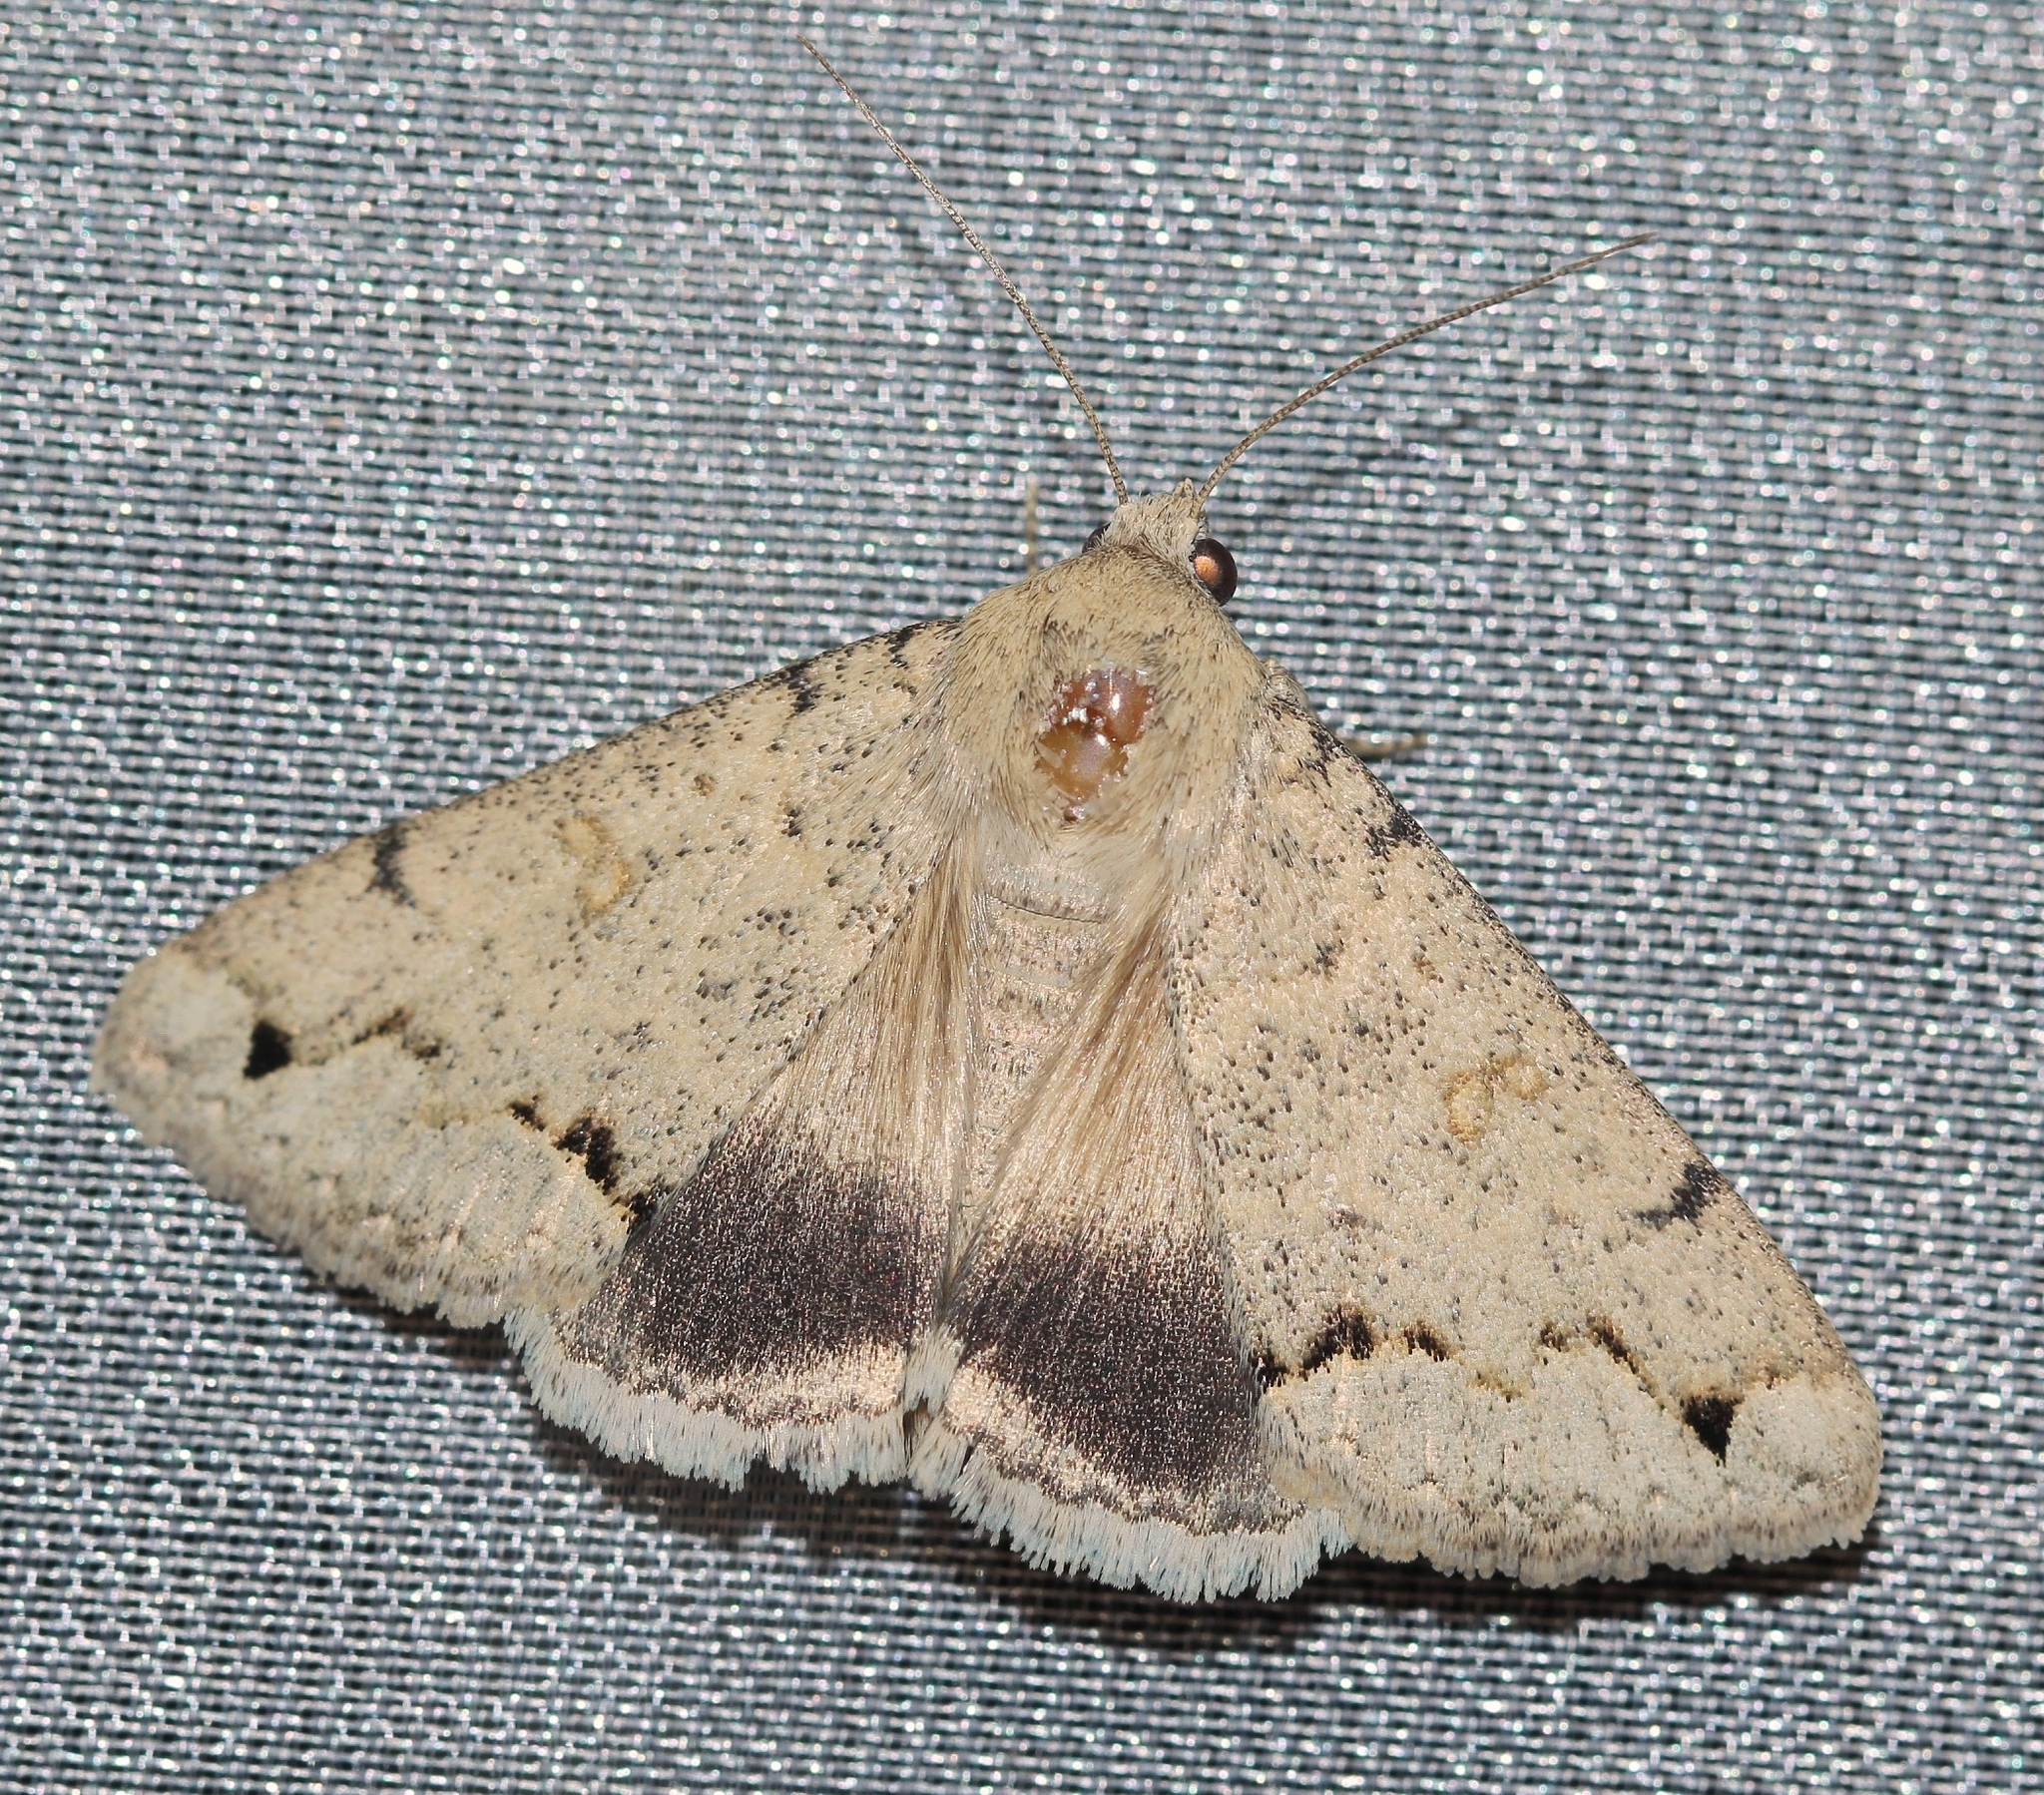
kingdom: Animalia
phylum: Arthropoda
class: Insecta
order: Lepidoptera
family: Erebidae
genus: Clytie
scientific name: Clytie delunaris
